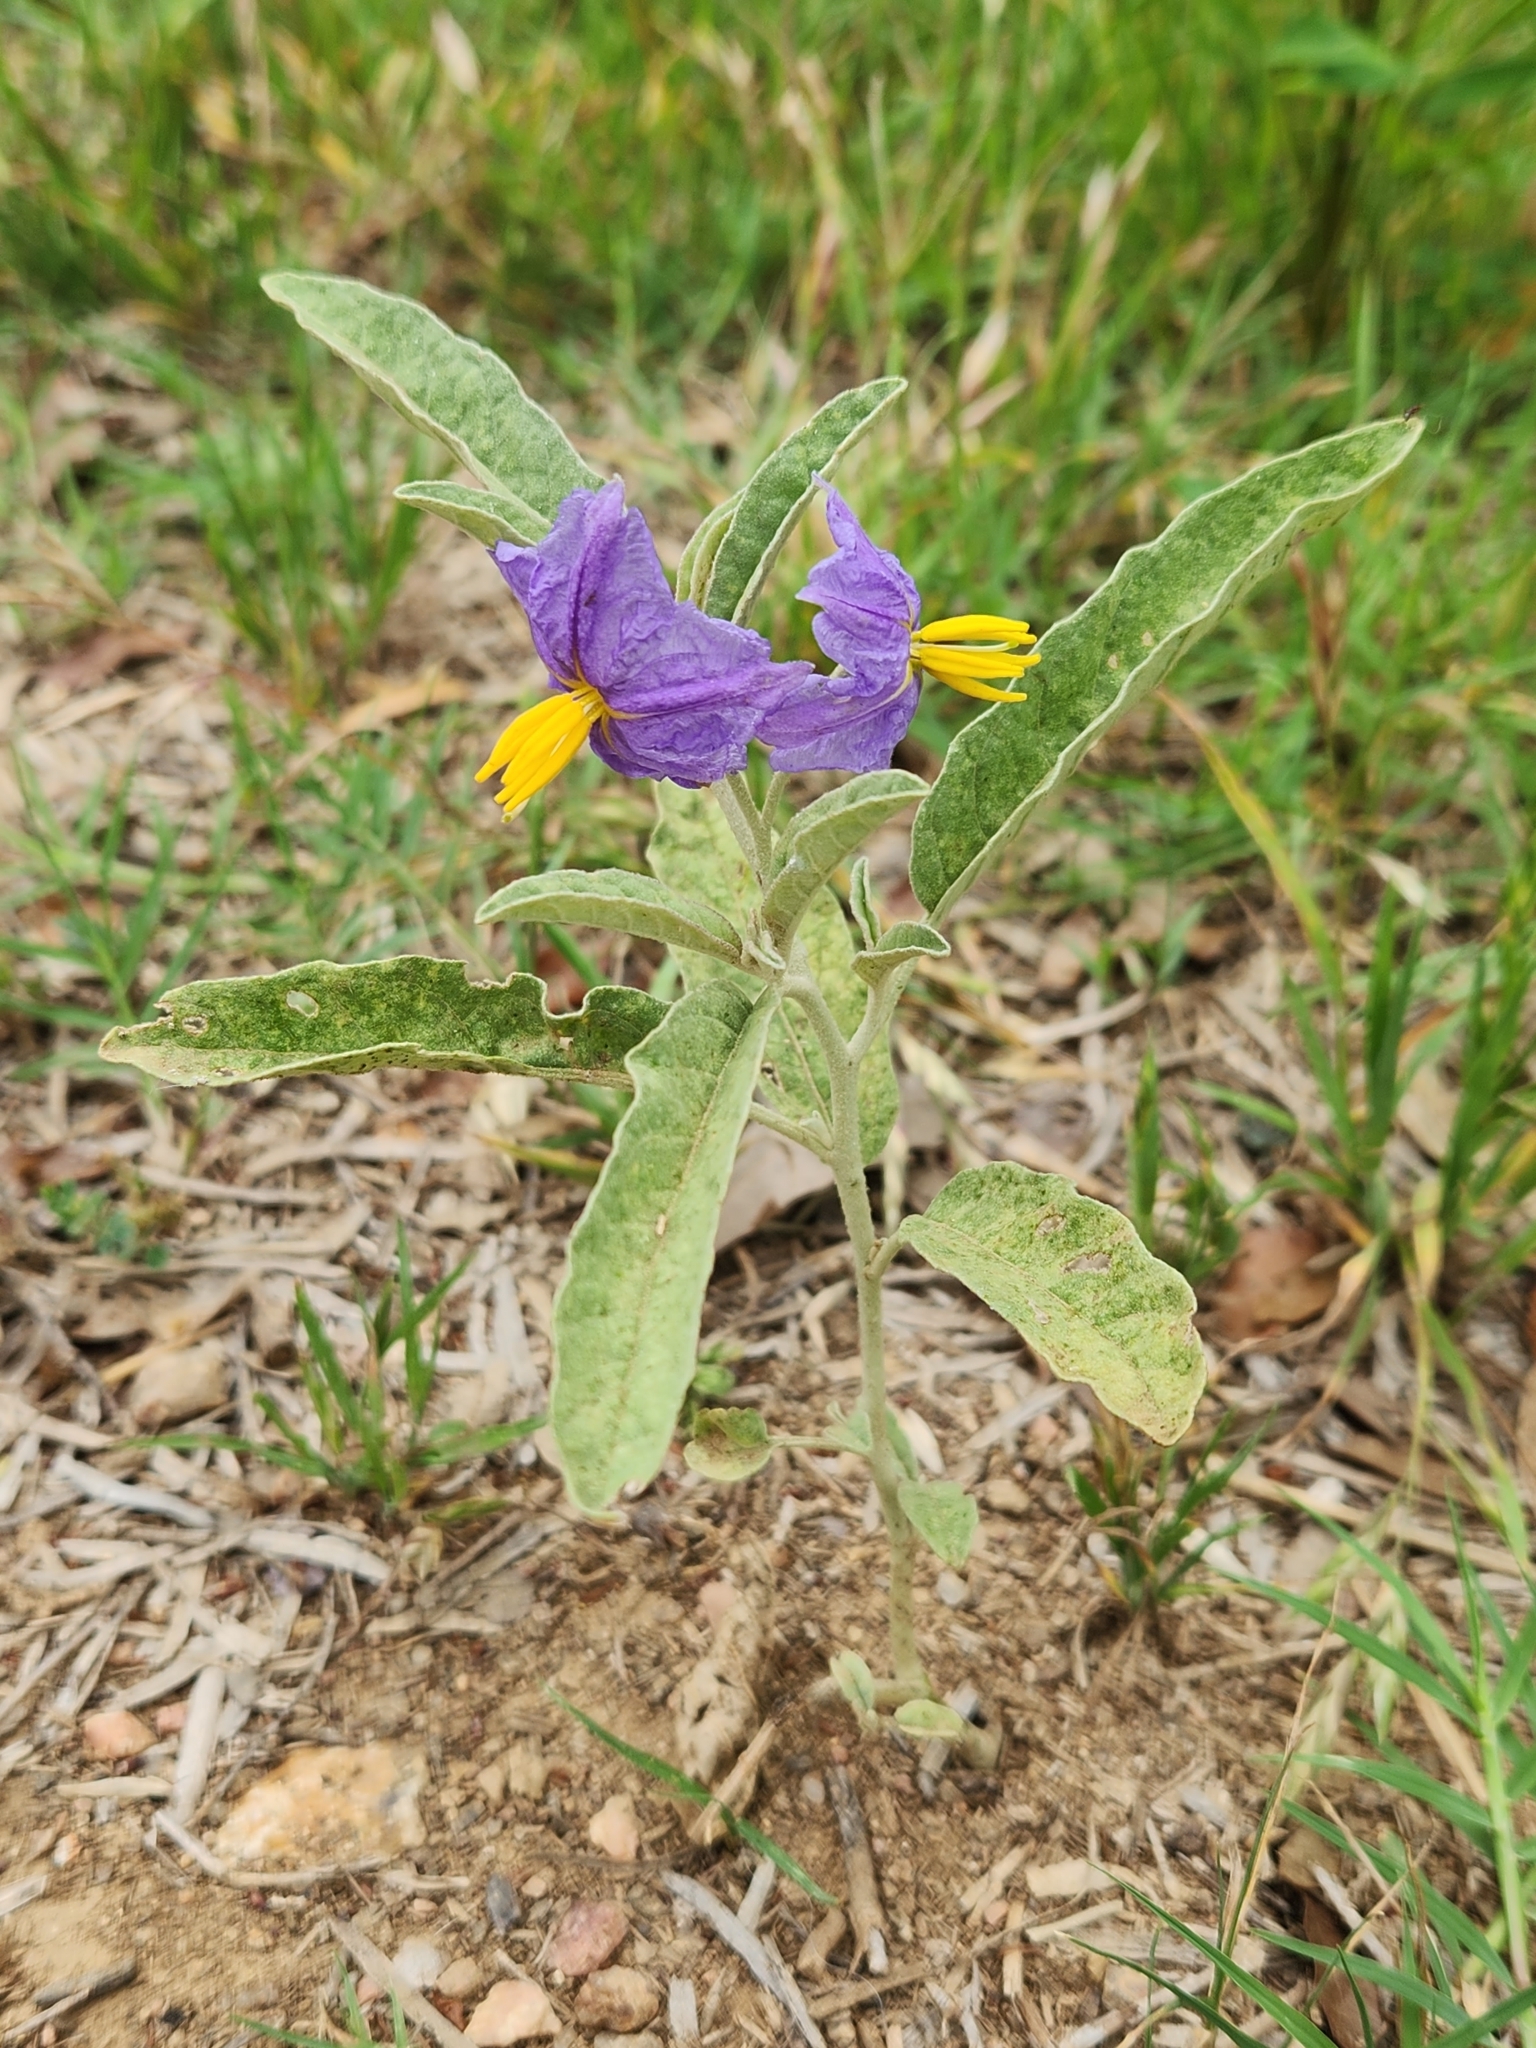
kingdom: Plantae
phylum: Tracheophyta
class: Magnoliopsida
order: Solanales
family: Solanaceae
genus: Solanum
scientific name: Solanum elaeagnifolium
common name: Silverleaf nightshade
